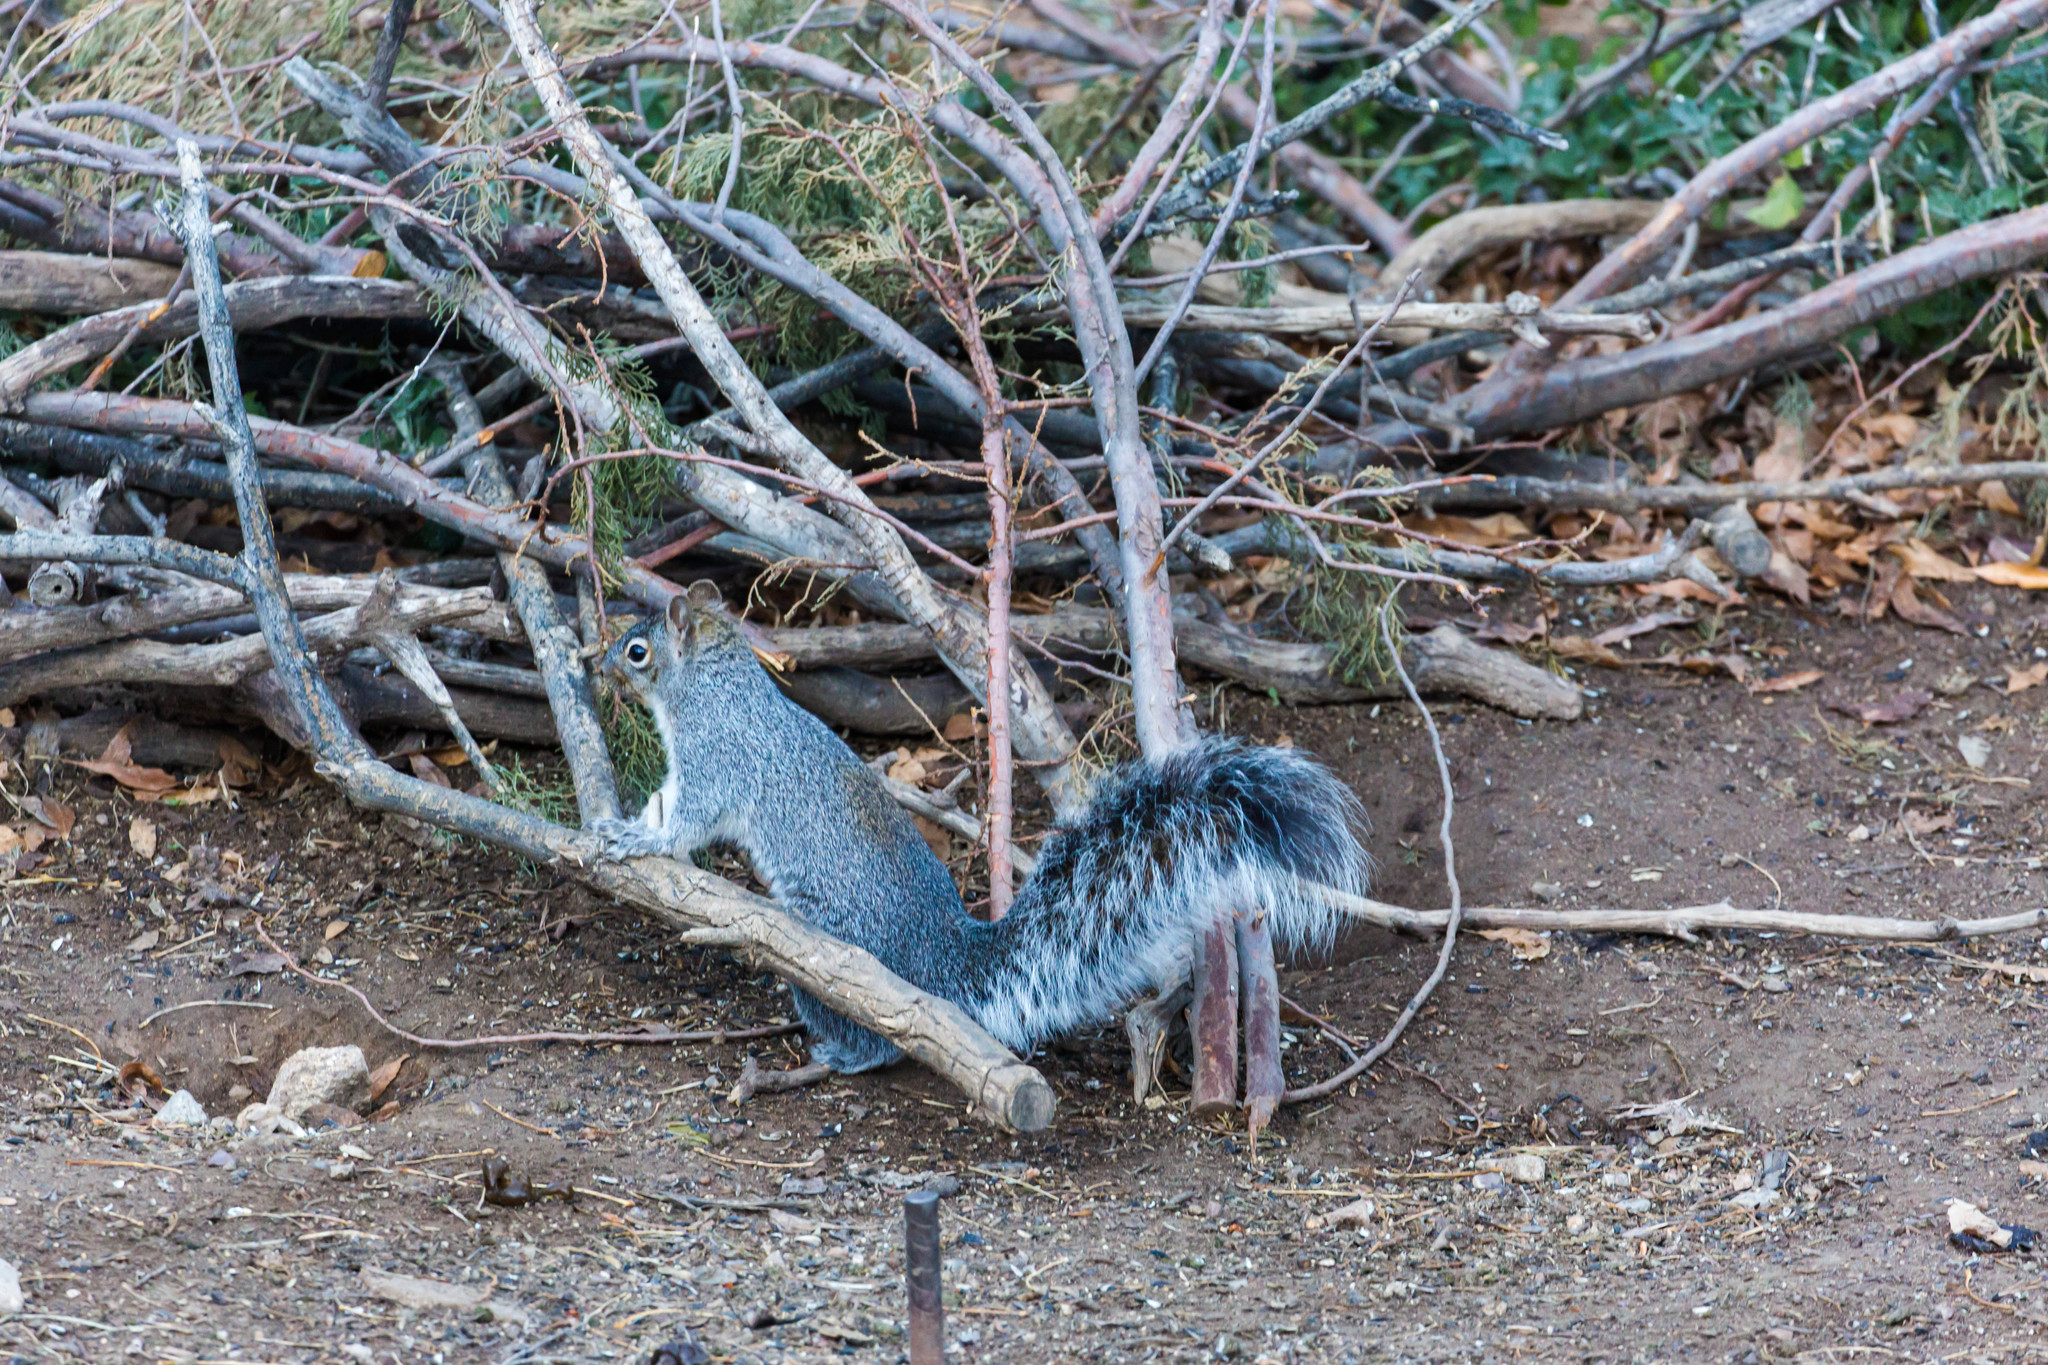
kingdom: Animalia
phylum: Chordata
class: Mammalia
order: Rodentia
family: Sciuridae
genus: Sciurus
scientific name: Sciurus arizonensis
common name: Arizona gray squirrel
